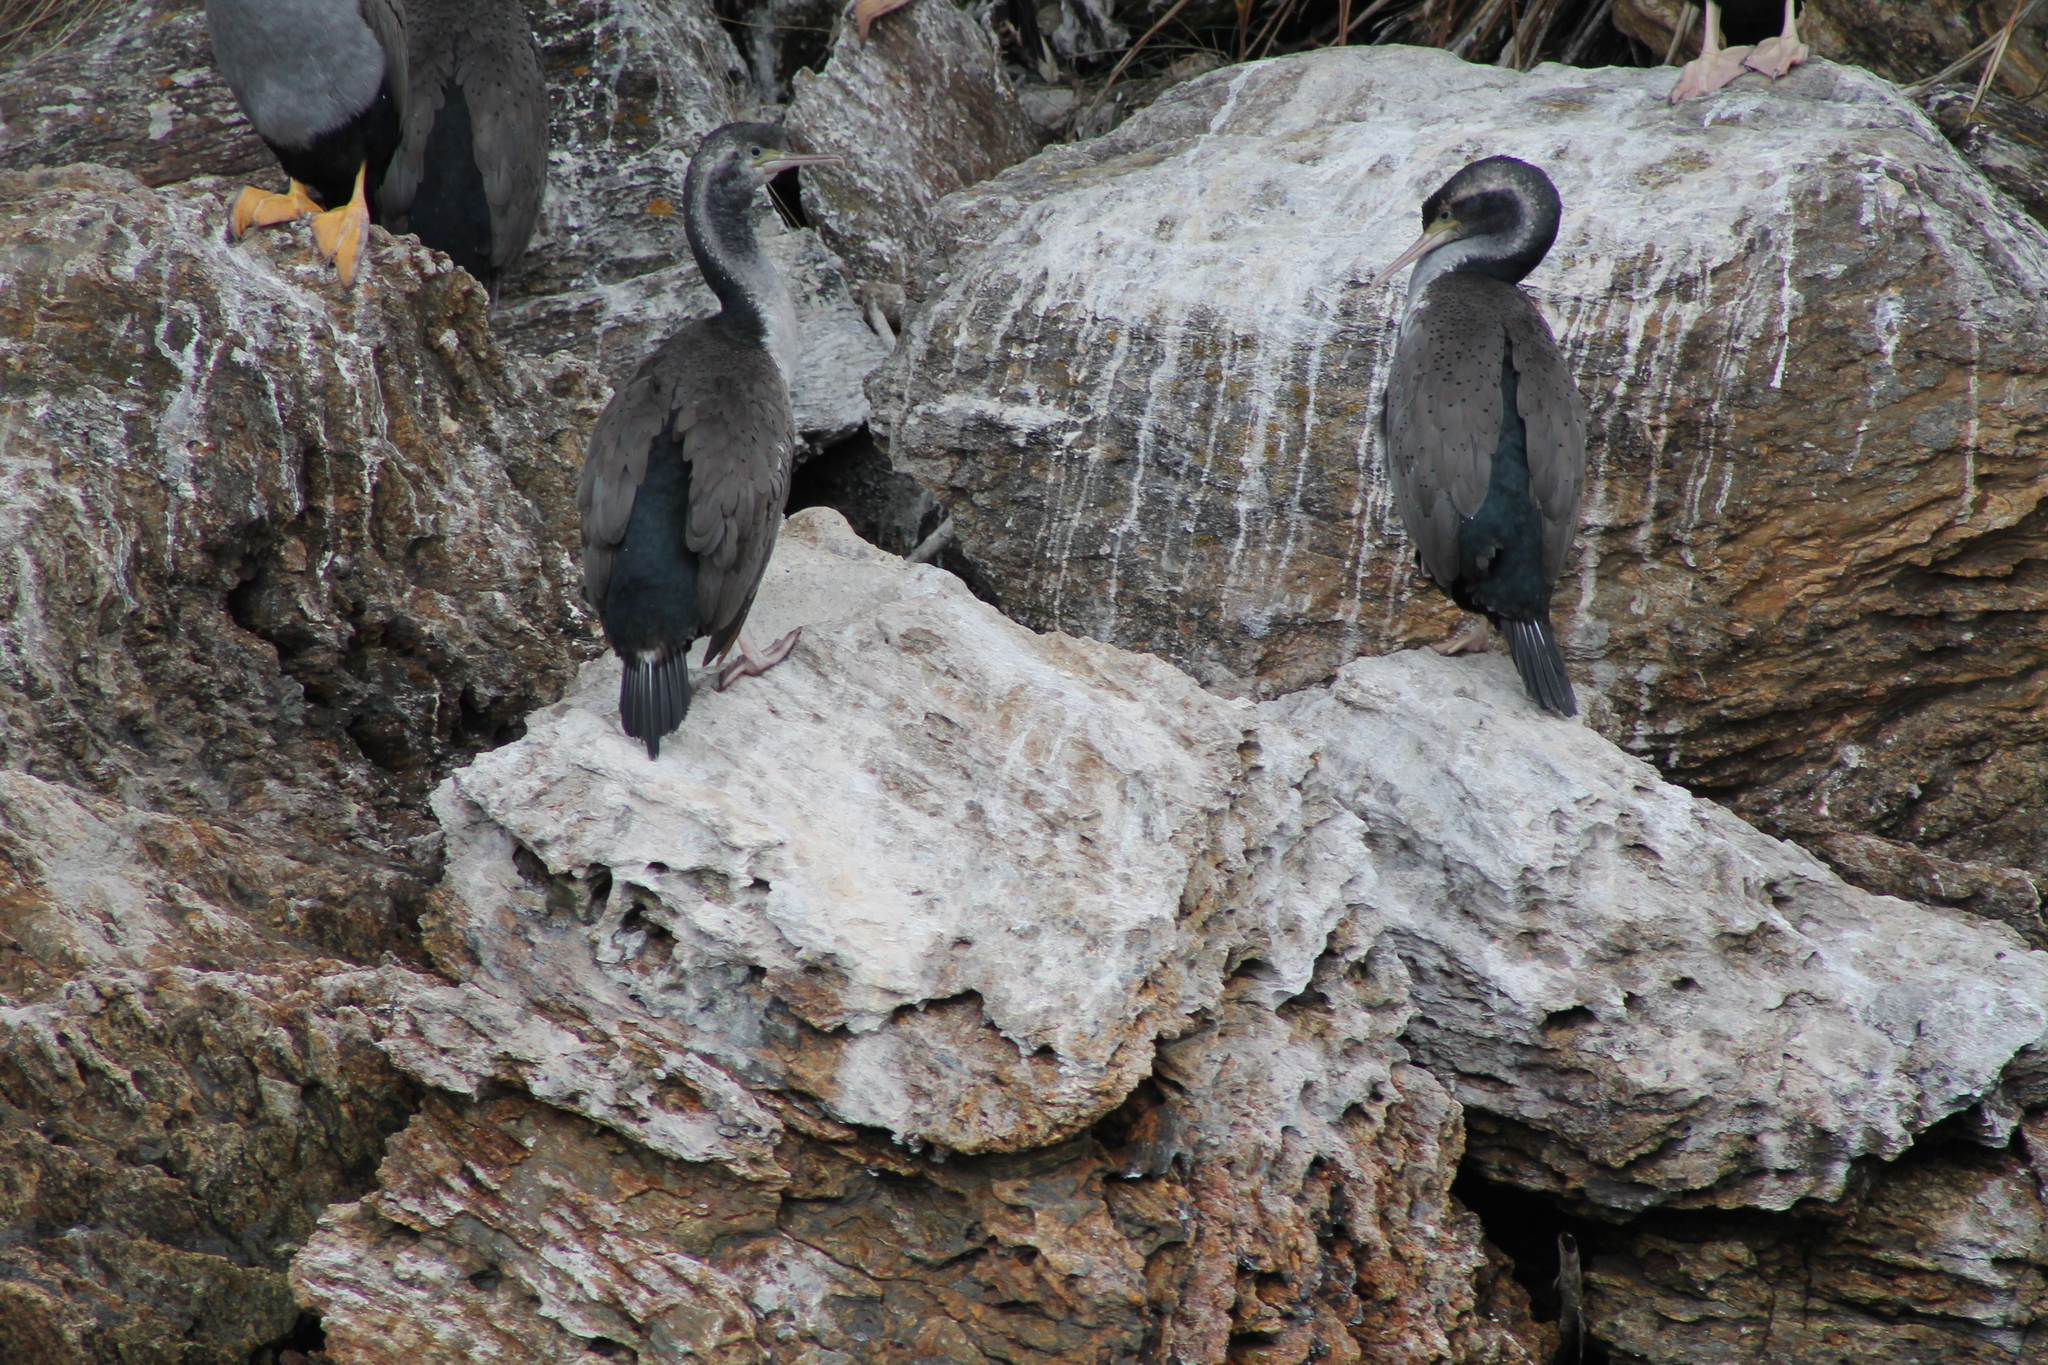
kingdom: Animalia
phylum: Chordata
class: Aves
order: Suliformes
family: Phalacrocoracidae
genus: Phalacrocorax
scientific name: Phalacrocorax punctatus
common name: Spotted shag
